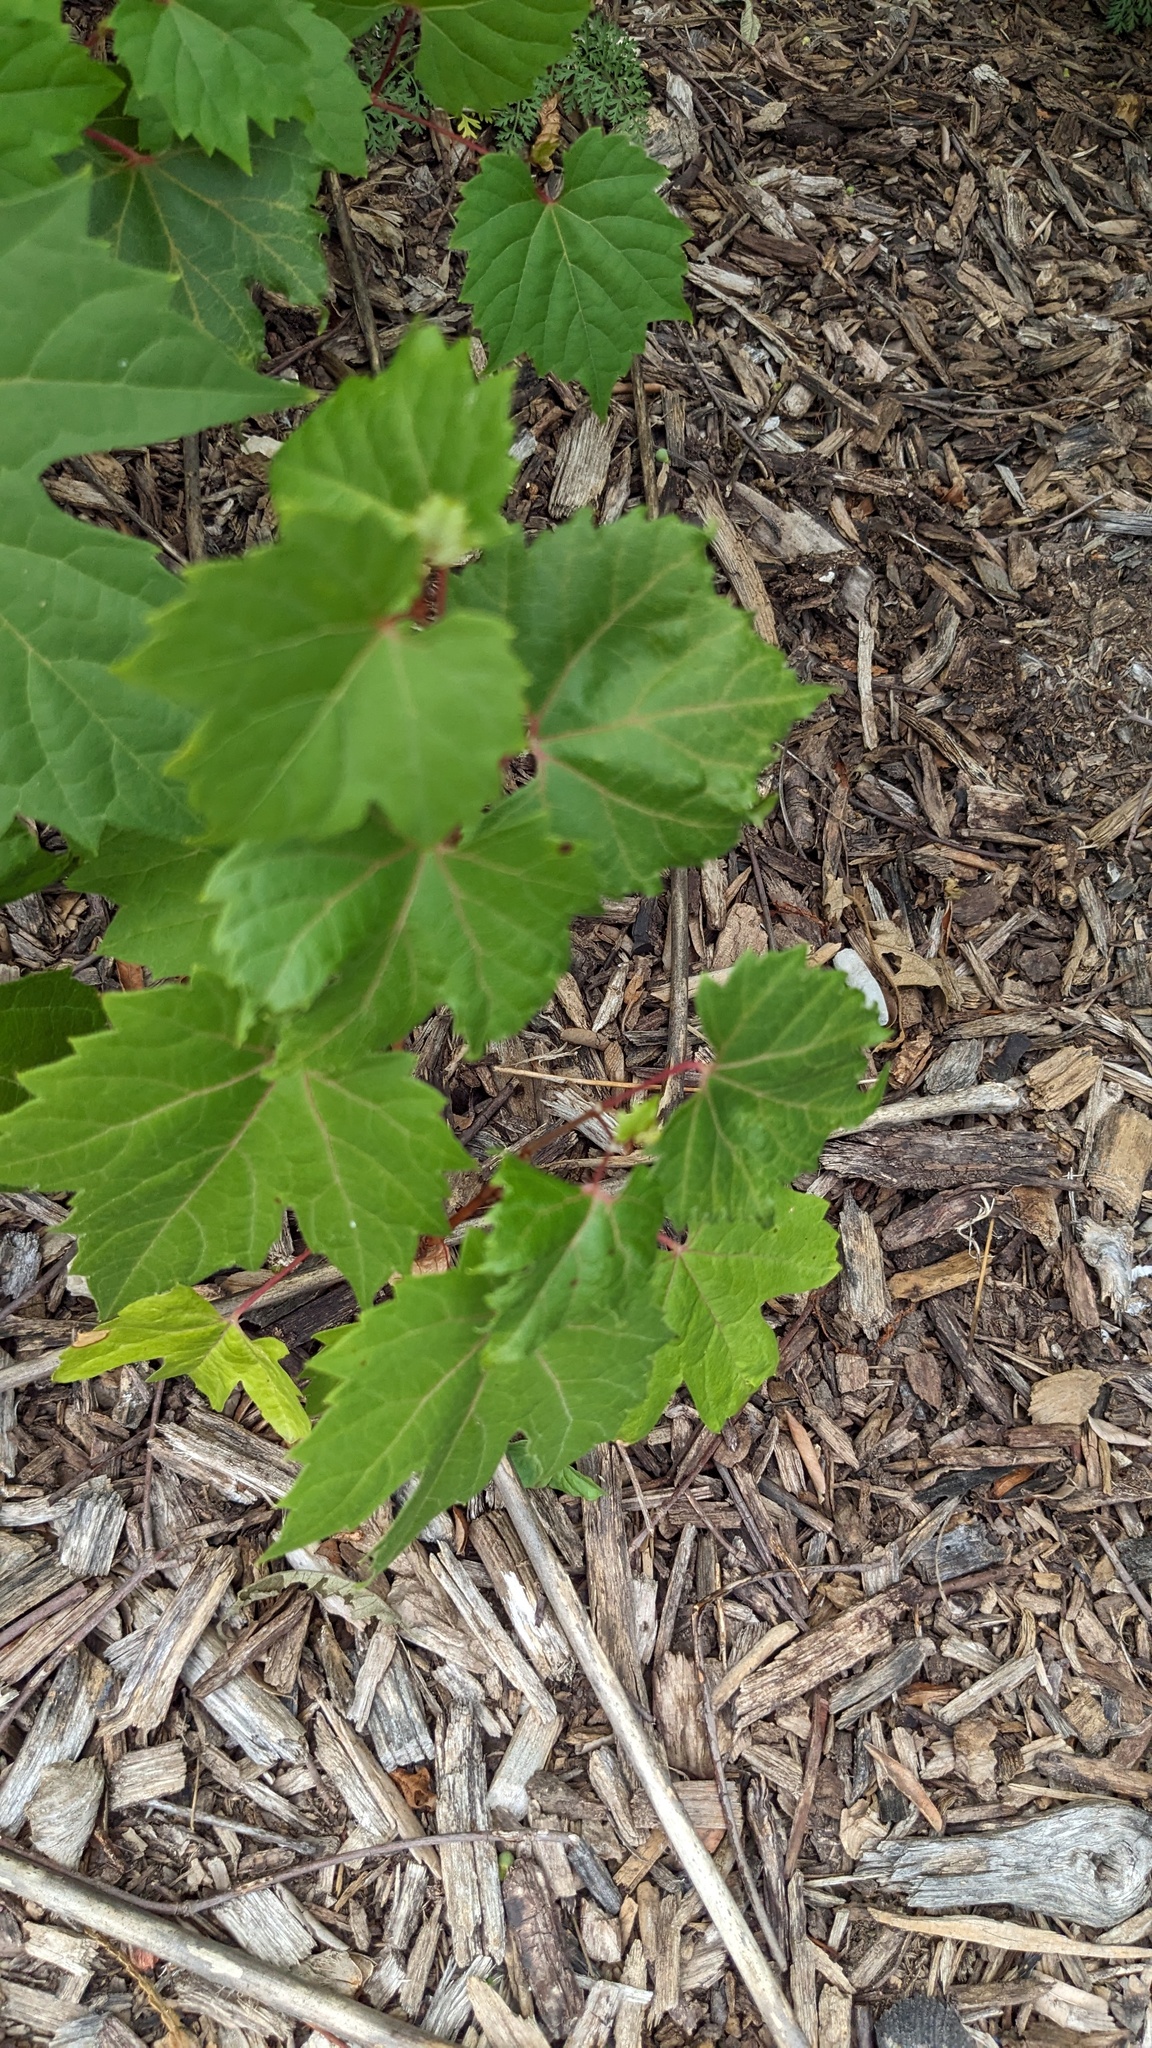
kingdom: Plantae
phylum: Tracheophyta
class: Magnoliopsida
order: Vitales
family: Vitaceae
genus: Vitis
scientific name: Vitis riparia
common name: Frost grape
